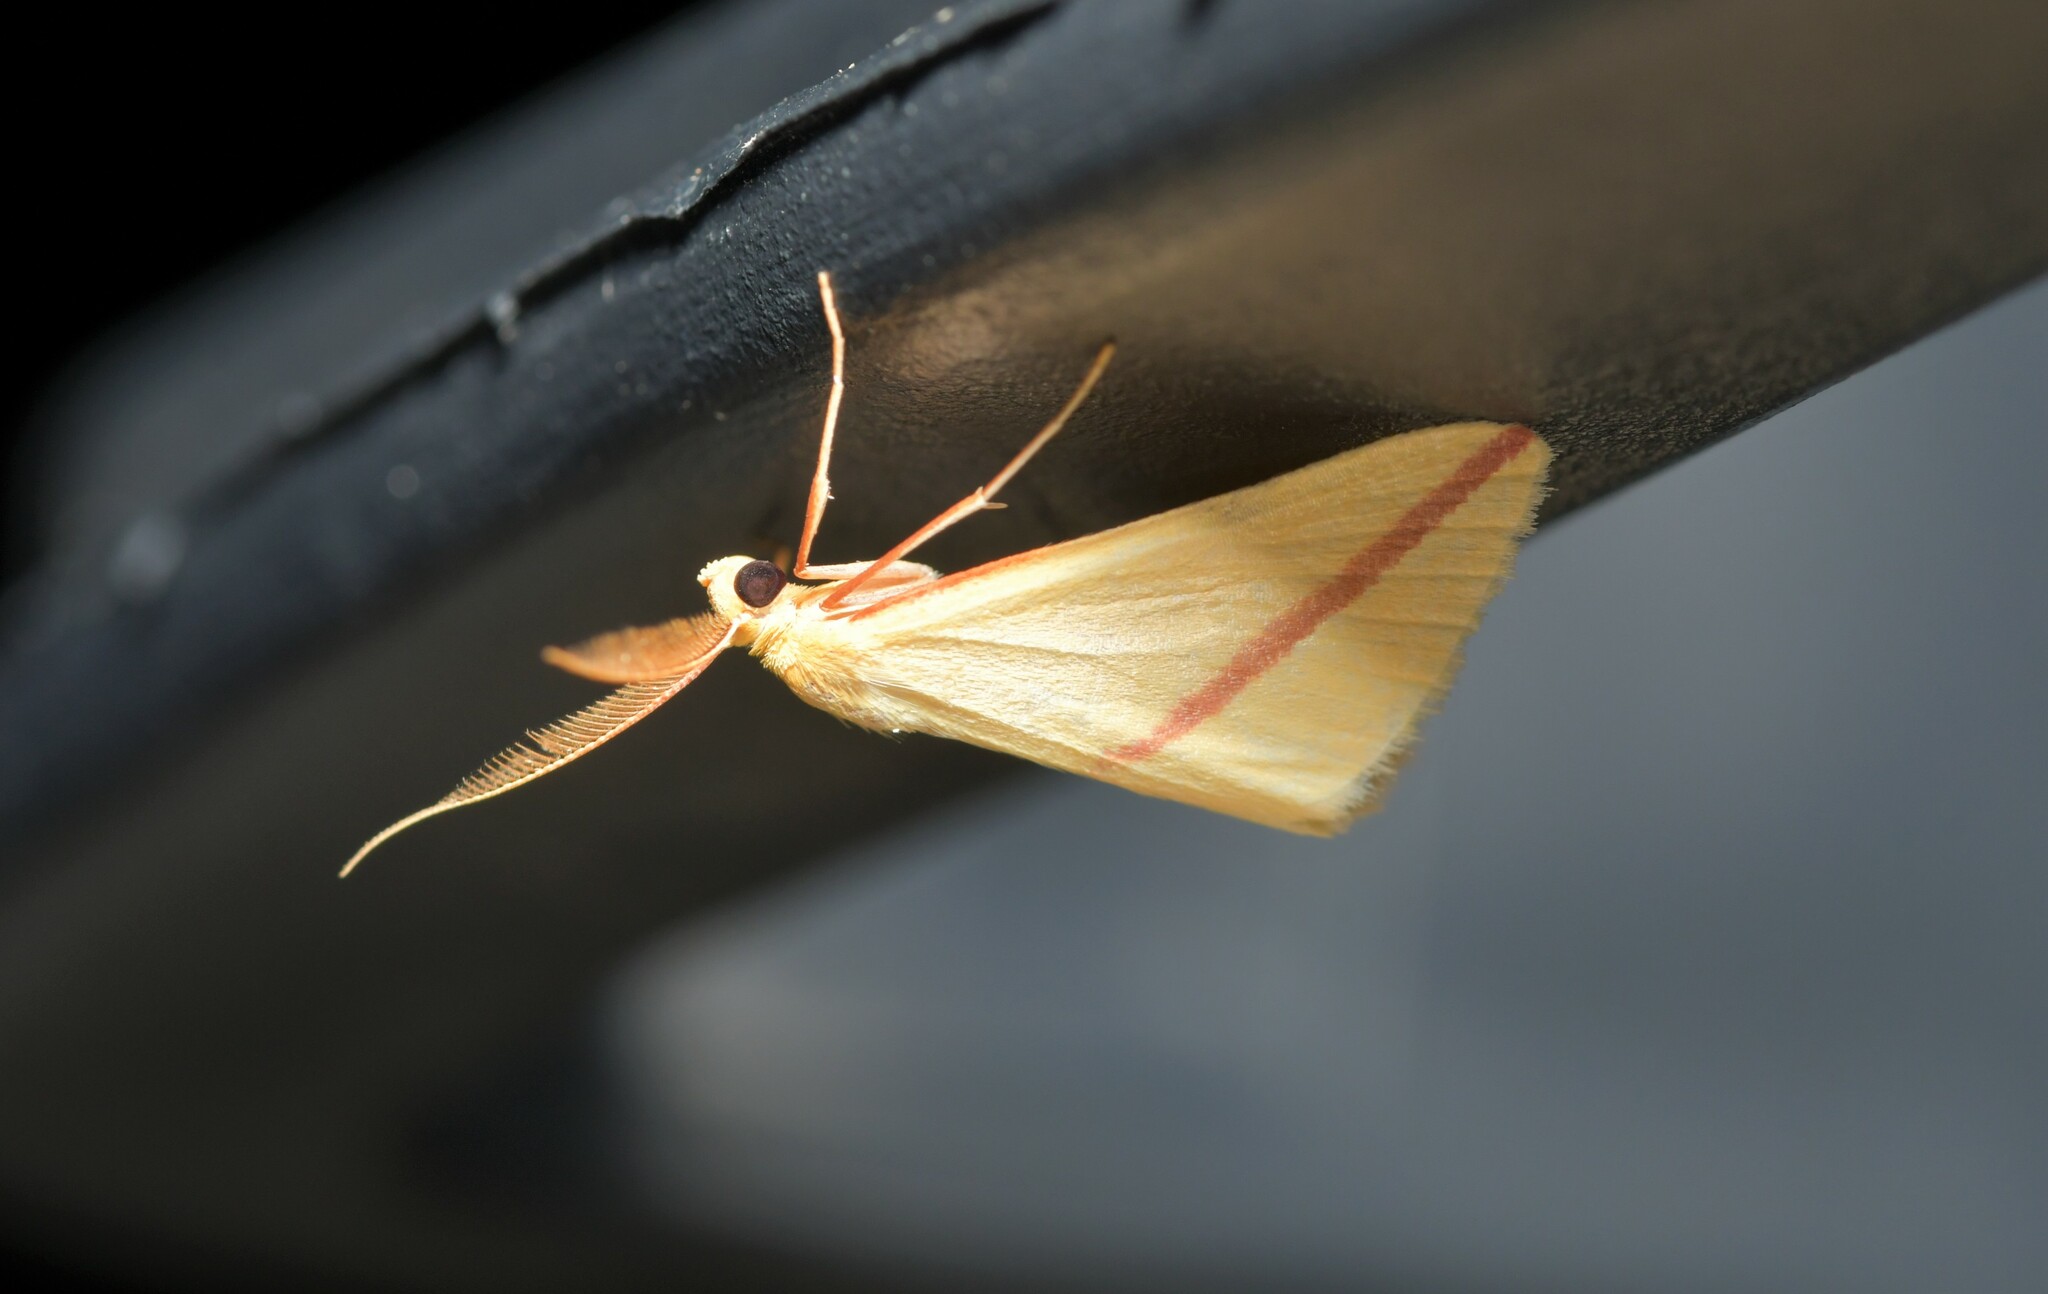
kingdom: Animalia
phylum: Arthropoda
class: Insecta
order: Lepidoptera
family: Geometridae
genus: Rhodometra
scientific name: Rhodometra sacraria
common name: Vestal
